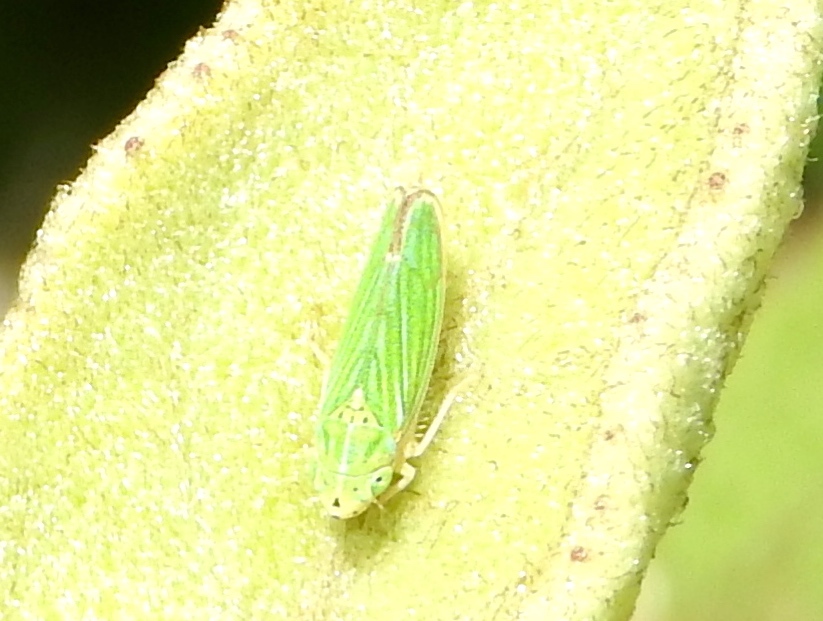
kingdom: Animalia
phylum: Arthropoda
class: Insecta
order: Hemiptera
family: Cicadellidae
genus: Graphocephala
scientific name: Graphocephala cythura
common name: Leafhopper
